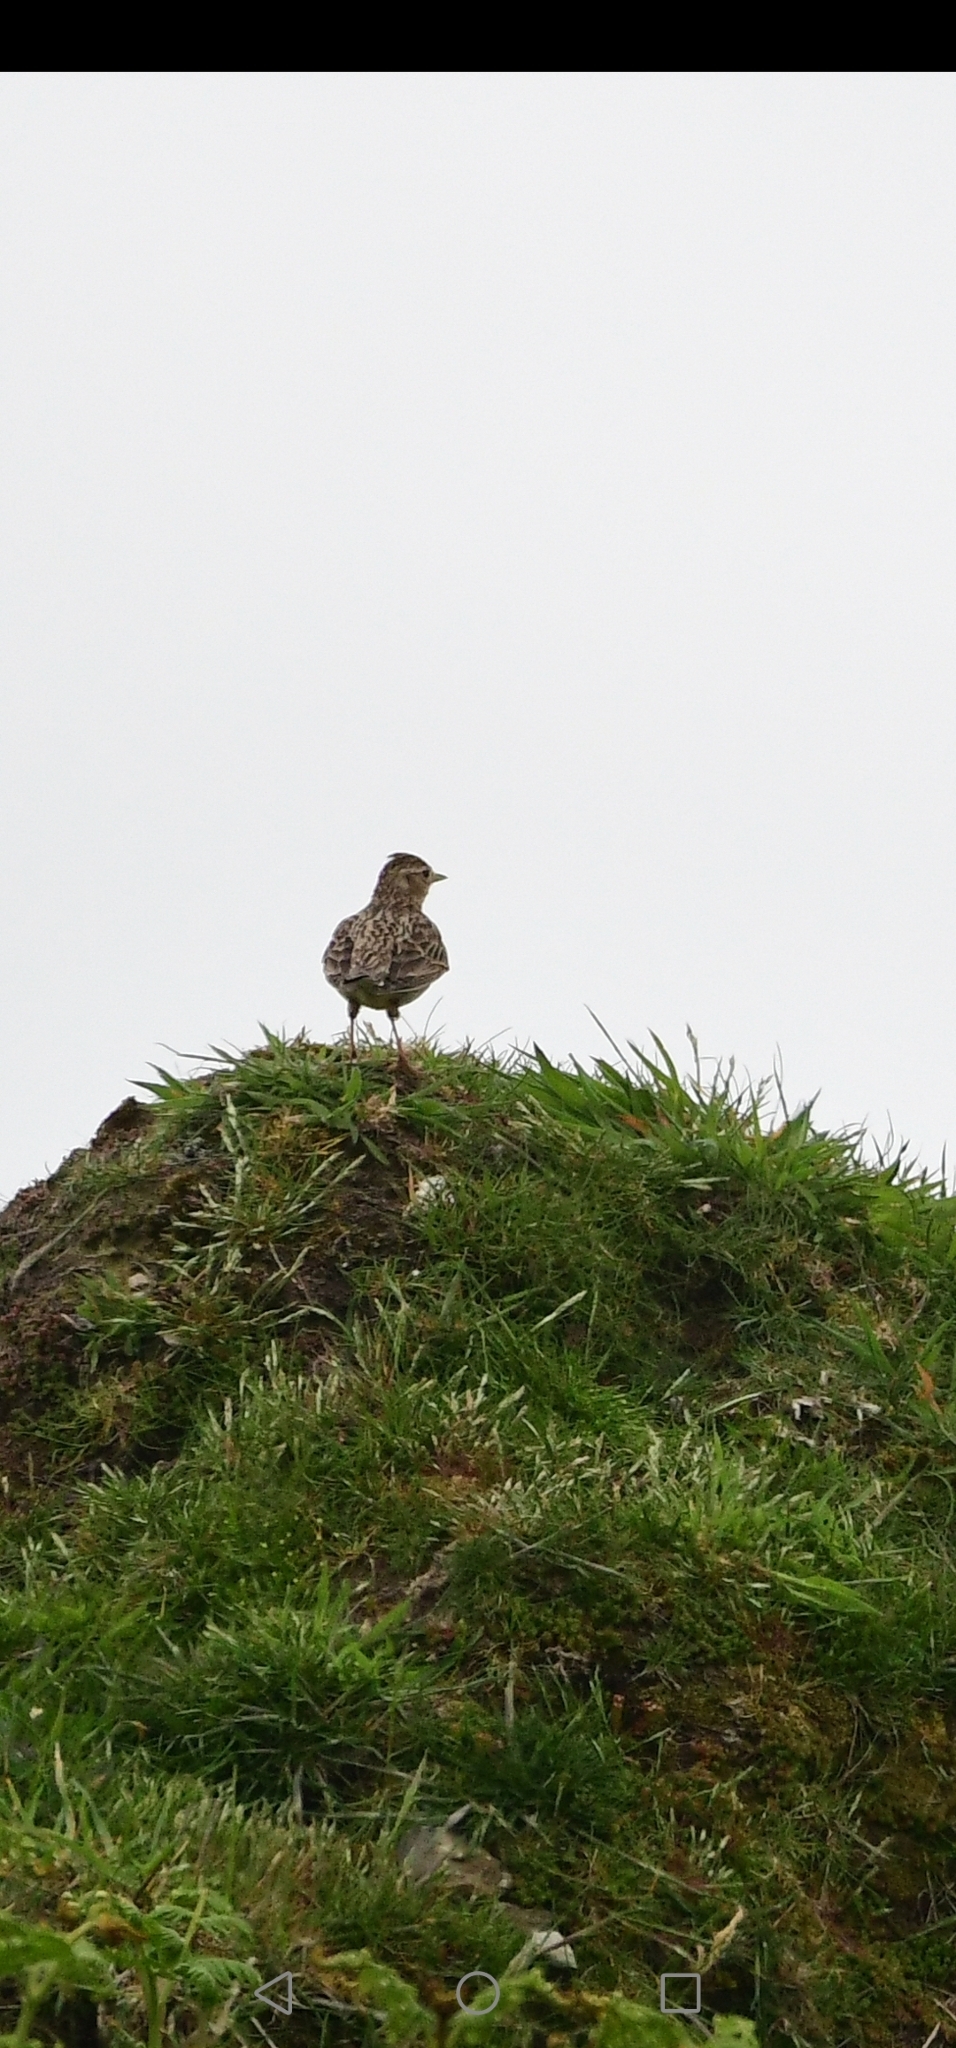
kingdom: Animalia
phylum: Chordata
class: Aves
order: Passeriformes
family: Alaudidae
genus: Alauda
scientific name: Alauda arvensis
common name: Eurasian skylark
